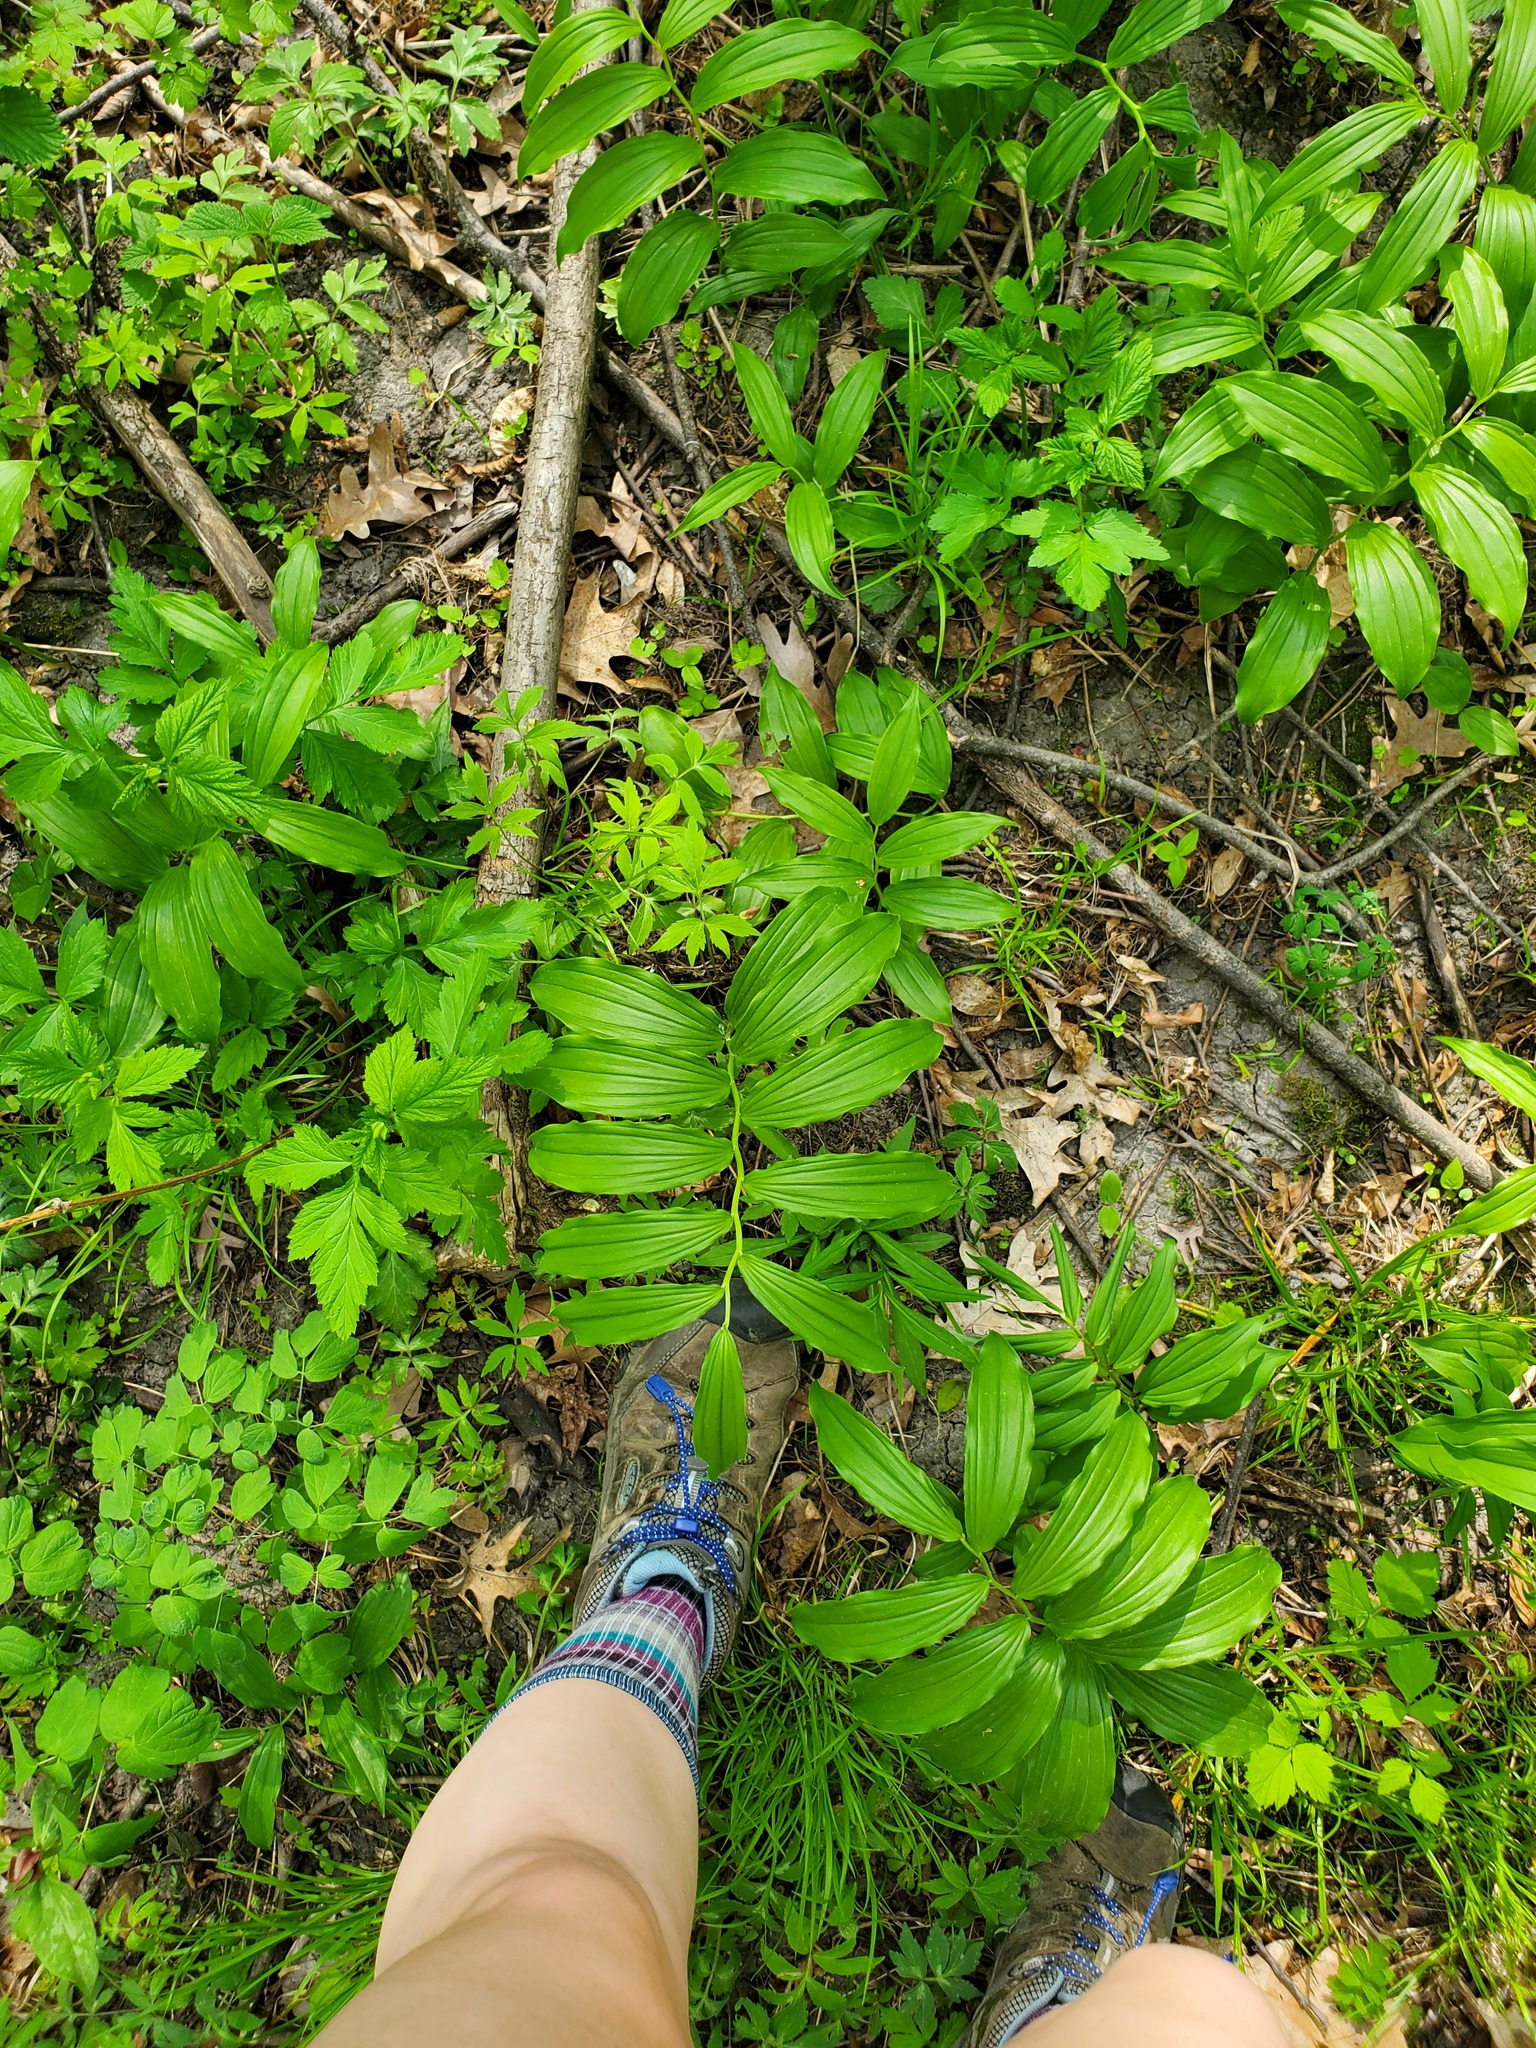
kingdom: Plantae
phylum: Tracheophyta
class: Liliopsida
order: Asparagales
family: Asparagaceae
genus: Maianthemum
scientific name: Maianthemum racemosum
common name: False spikenard
